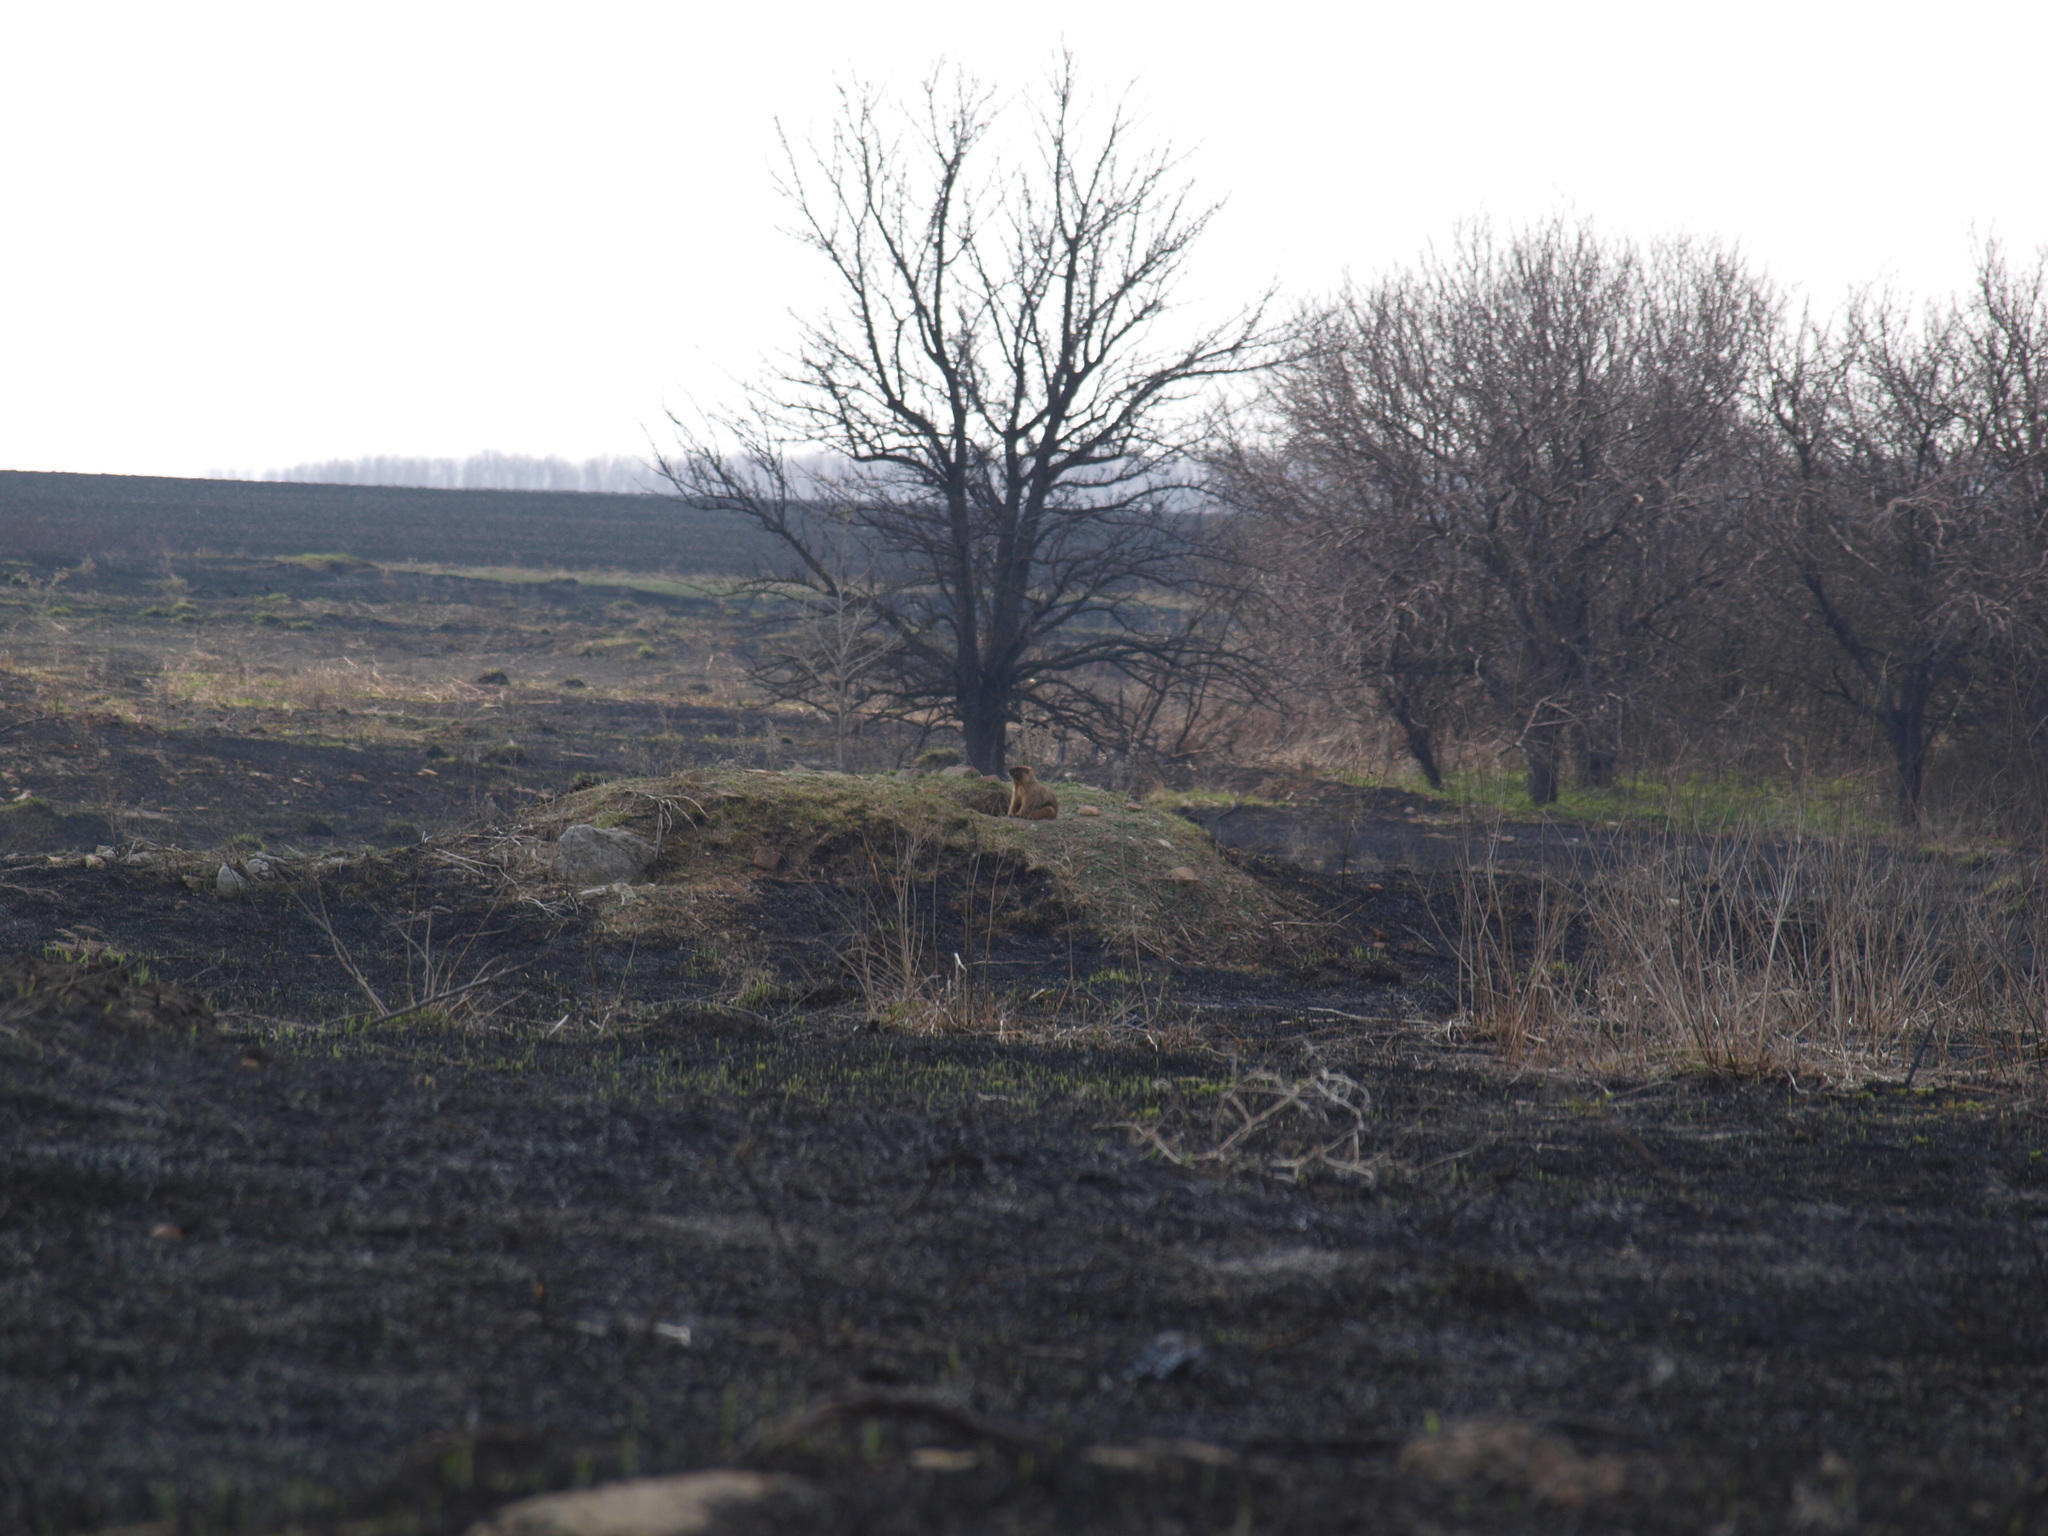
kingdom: Animalia
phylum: Chordata
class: Mammalia
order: Rodentia
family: Sciuridae
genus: Marmota
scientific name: Marmota bobak
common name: Bobak marmot
